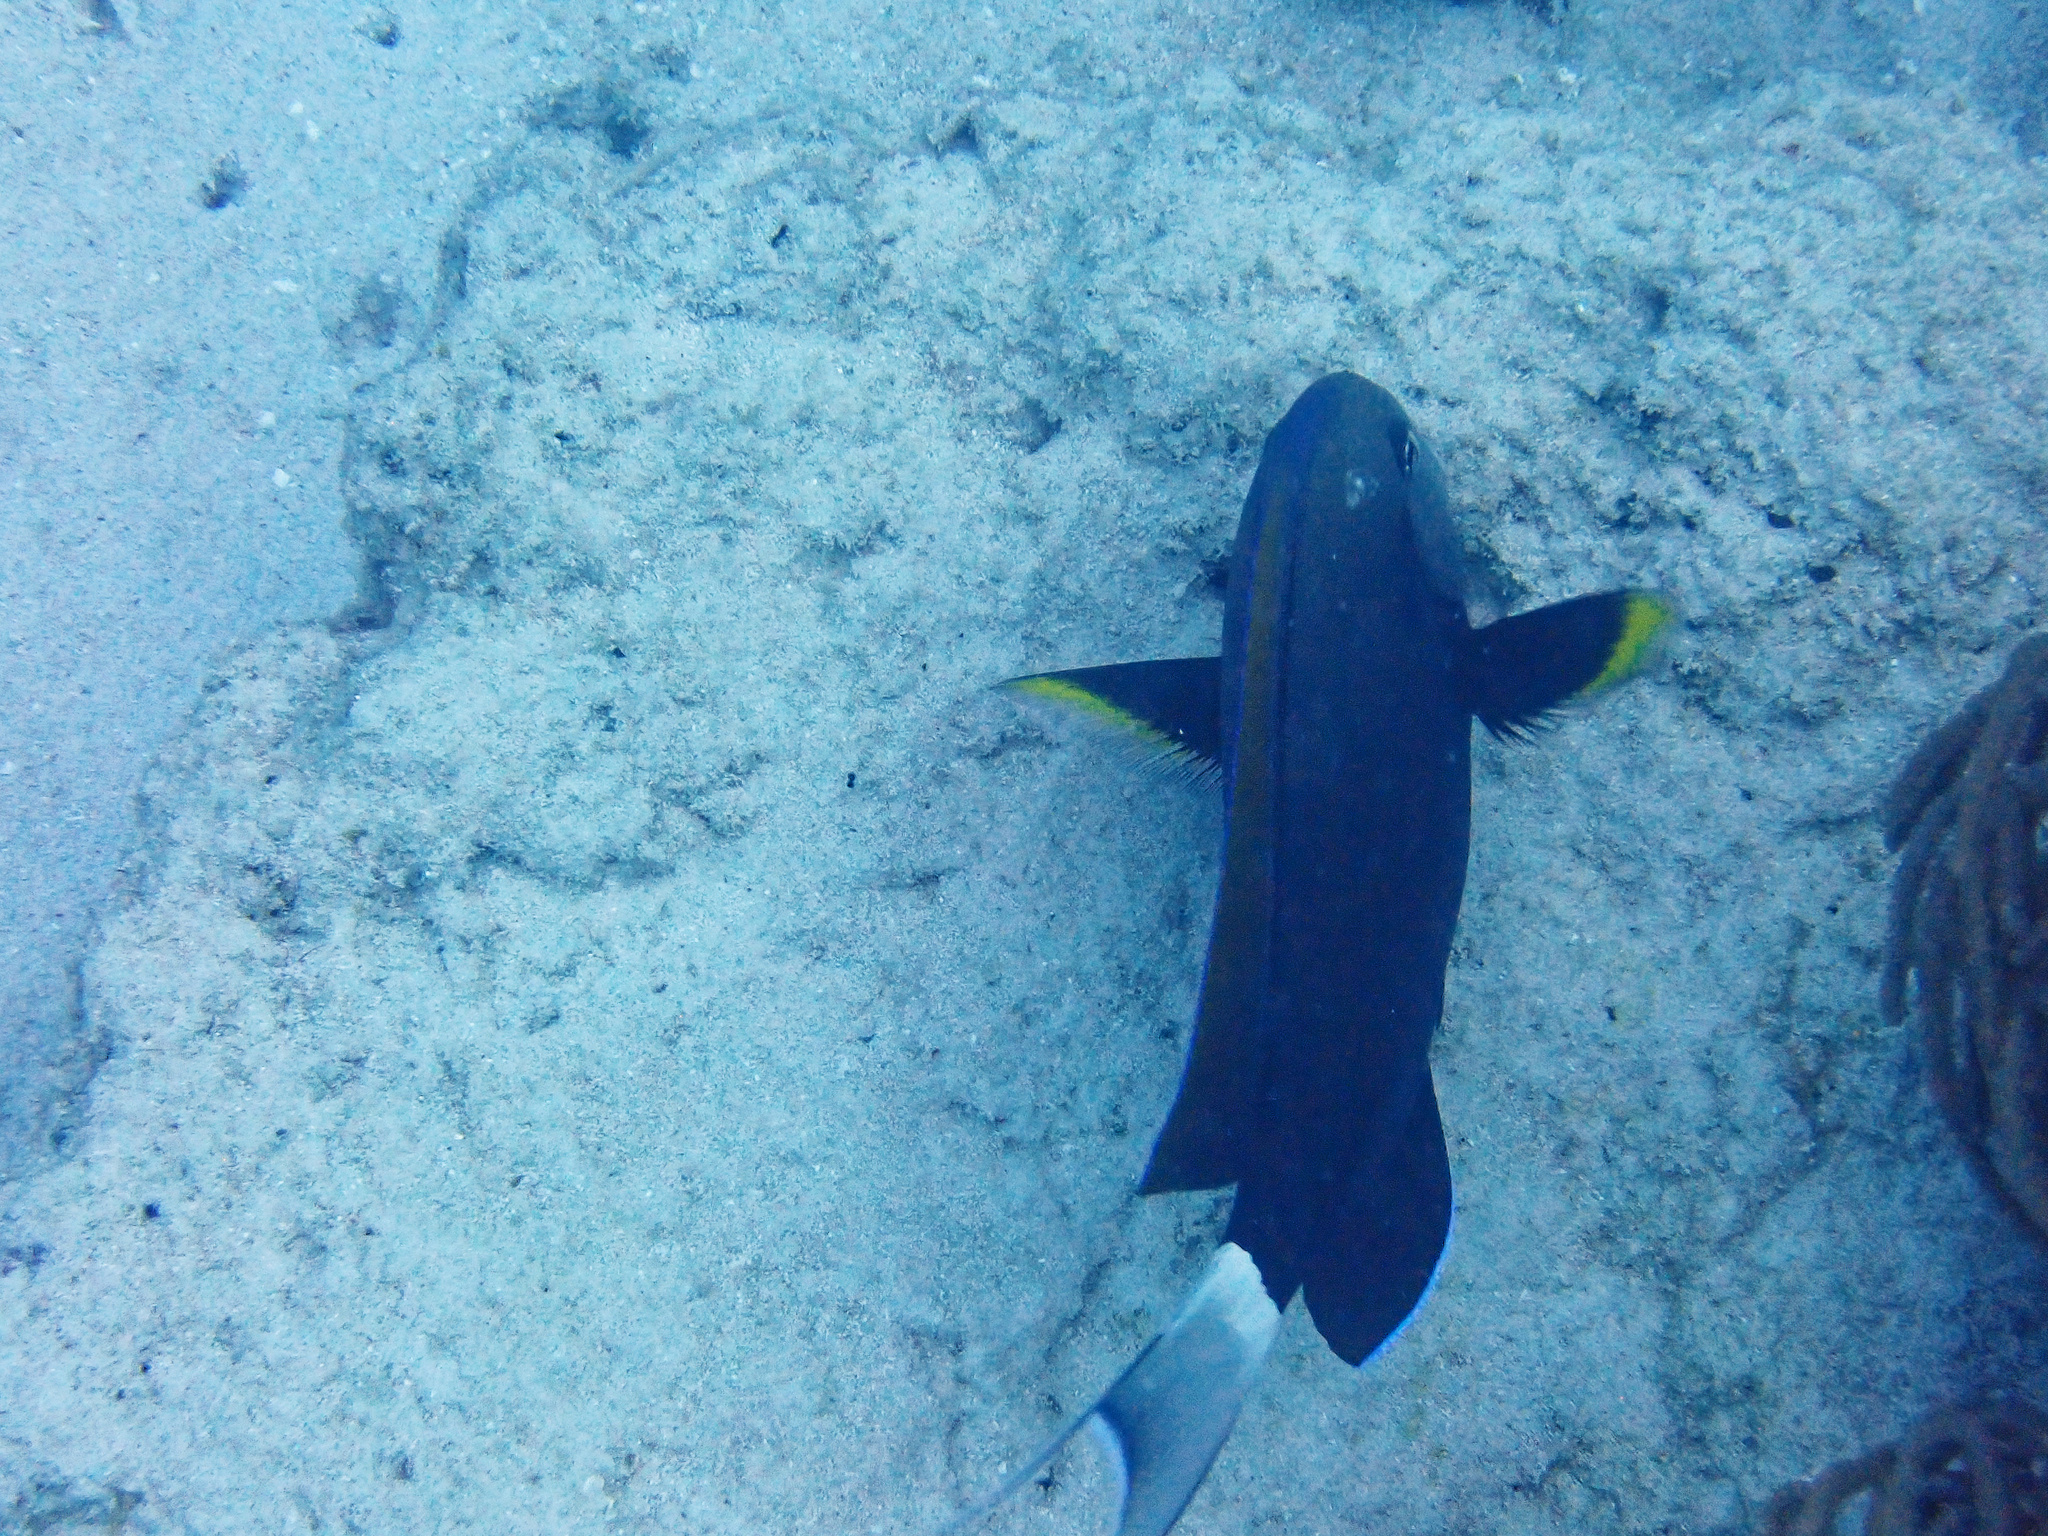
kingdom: Animalia
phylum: Chordata
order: Perciformes
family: Acanthuridae
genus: Acanthurus
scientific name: Acanthurus nigricauda
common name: Black-barred surgeonfish
